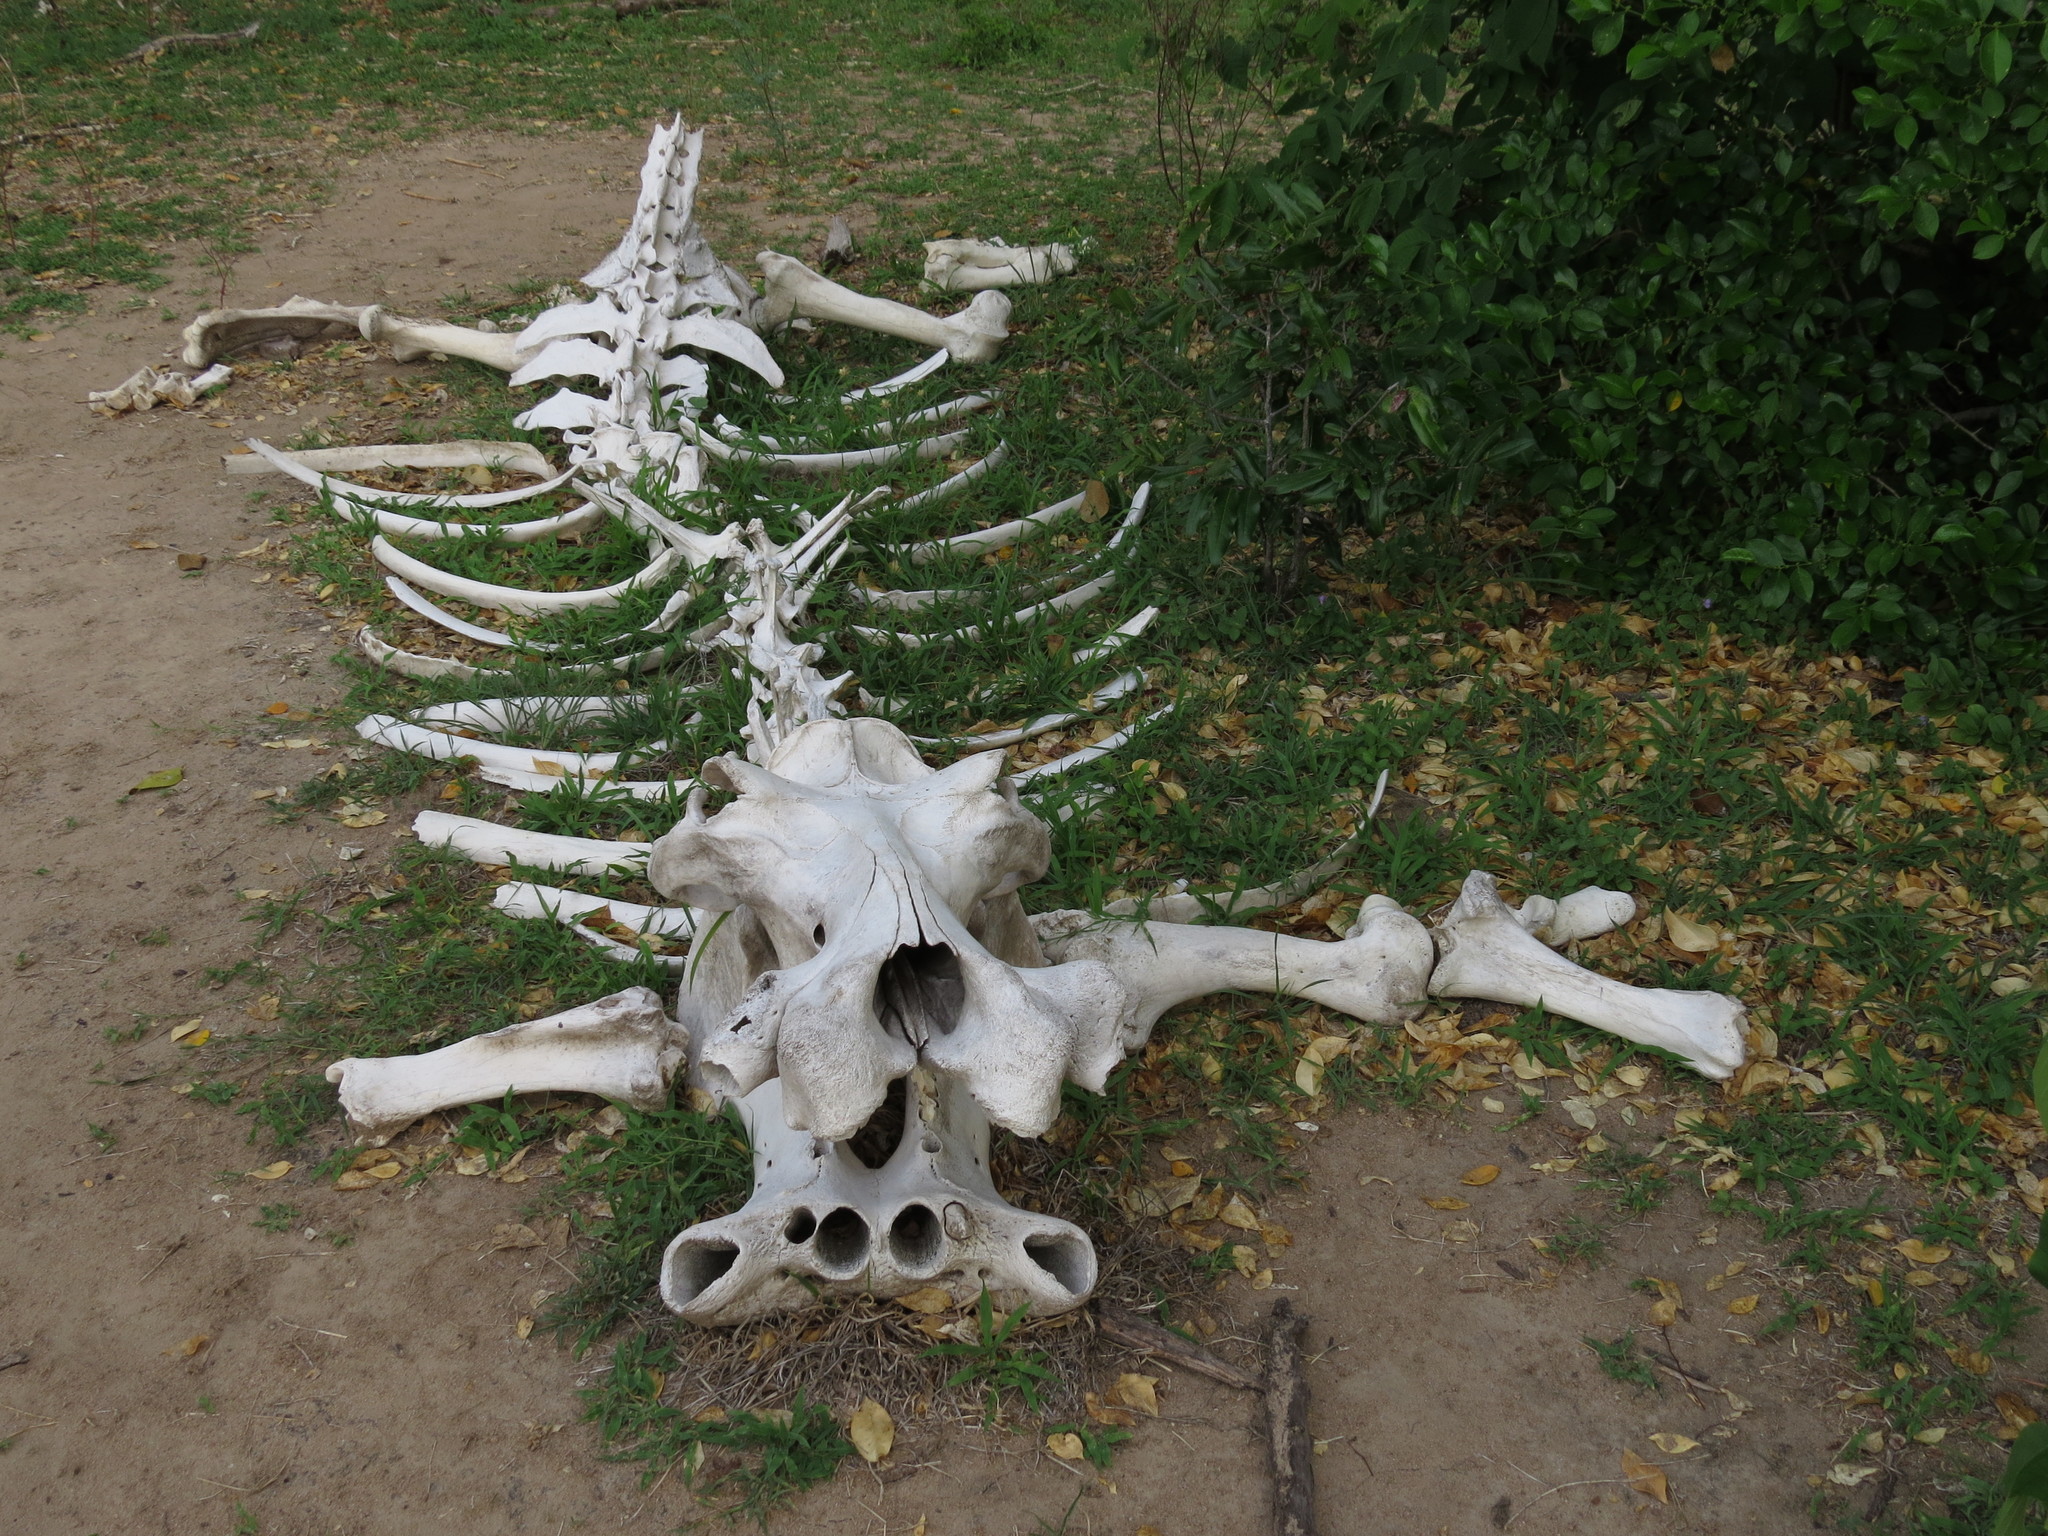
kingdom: Animalia
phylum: Chordata
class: Mammalia
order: Artiodactyla
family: Hippopotamidae
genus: Hippopotamus
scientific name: Hippopotamus amphibius
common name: Common hippopotamus
